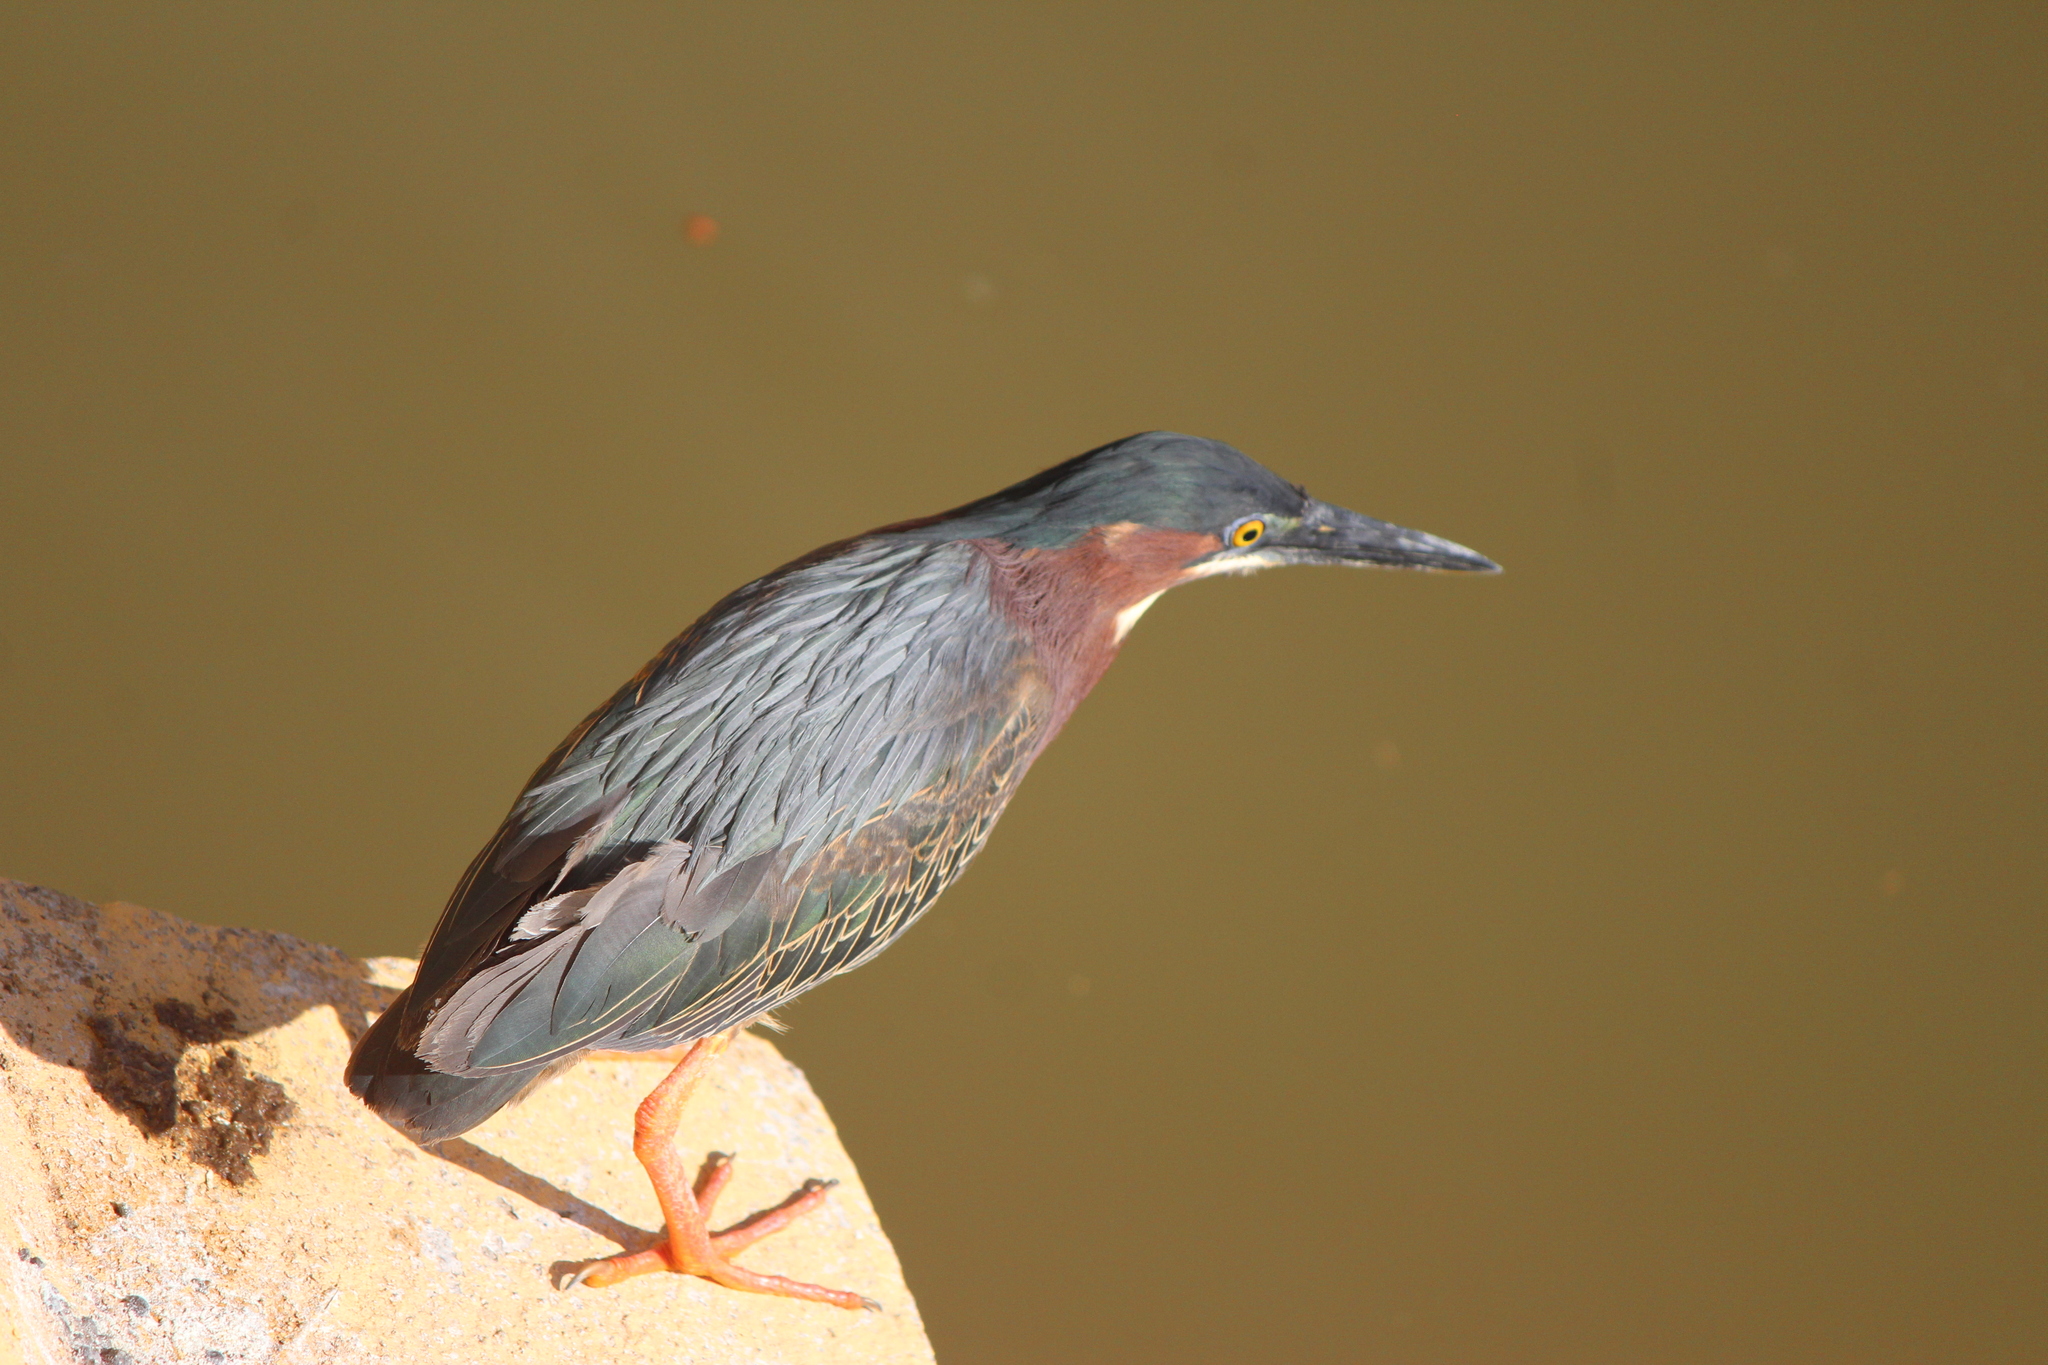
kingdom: Animalia
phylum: Chordata
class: Aves
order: Pelecaniformes
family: Ardeidae
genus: Butorides
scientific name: Butorides virescens
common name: Green heron
